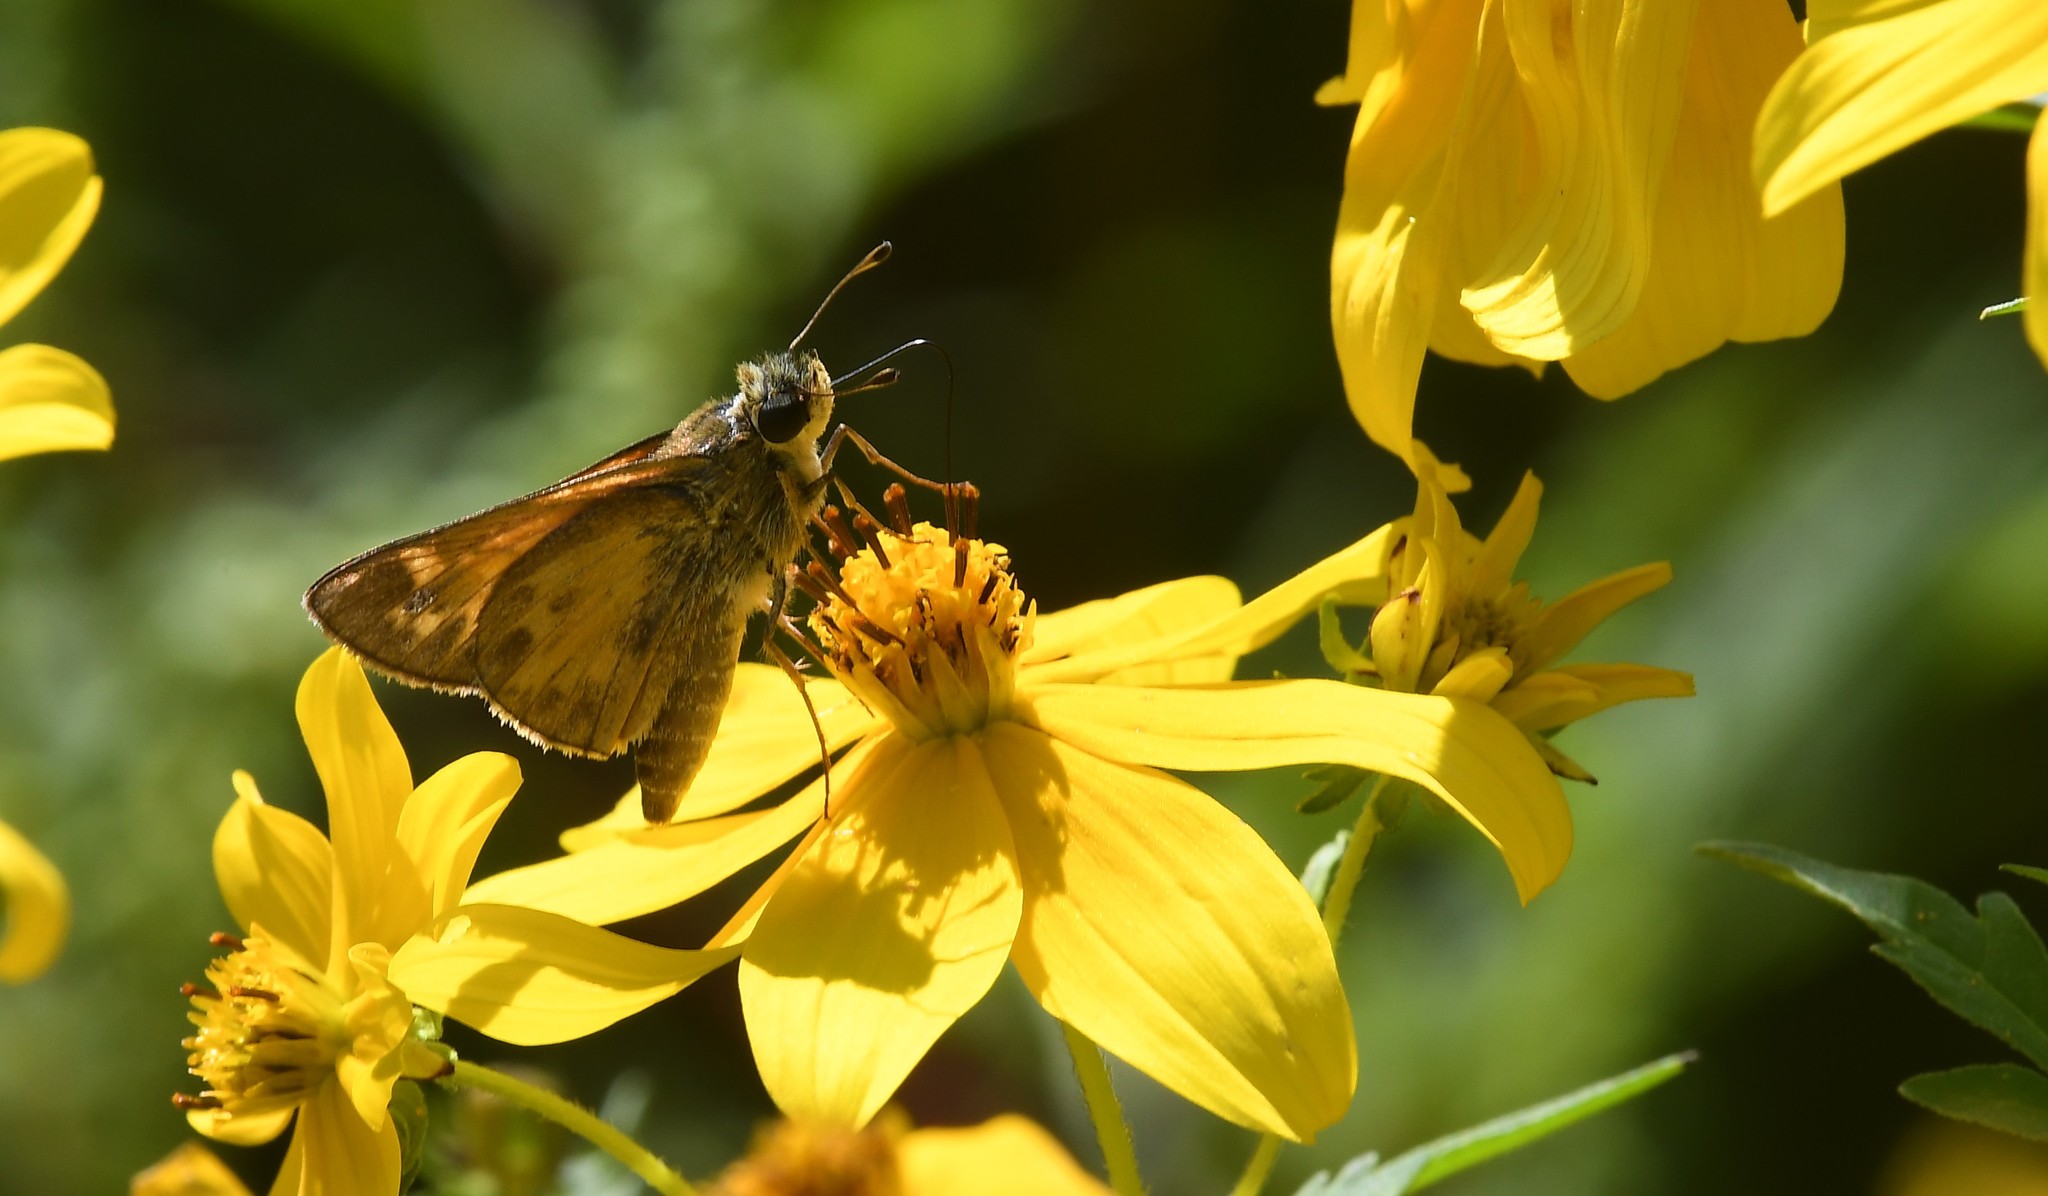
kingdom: Animalia
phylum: Arthropoda
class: Insecta
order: Lepidoptera
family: Hesperiidae
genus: Atalopedes
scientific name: Atalopedes
